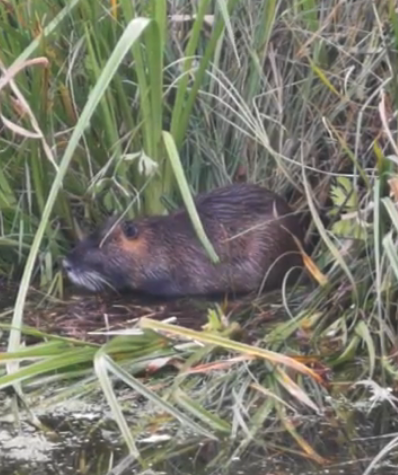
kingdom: Animalia
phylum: Chordata
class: Mammalia
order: Rodentia
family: Myocastoridae
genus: Myocastor
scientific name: Myocastor coypus
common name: Coypu
